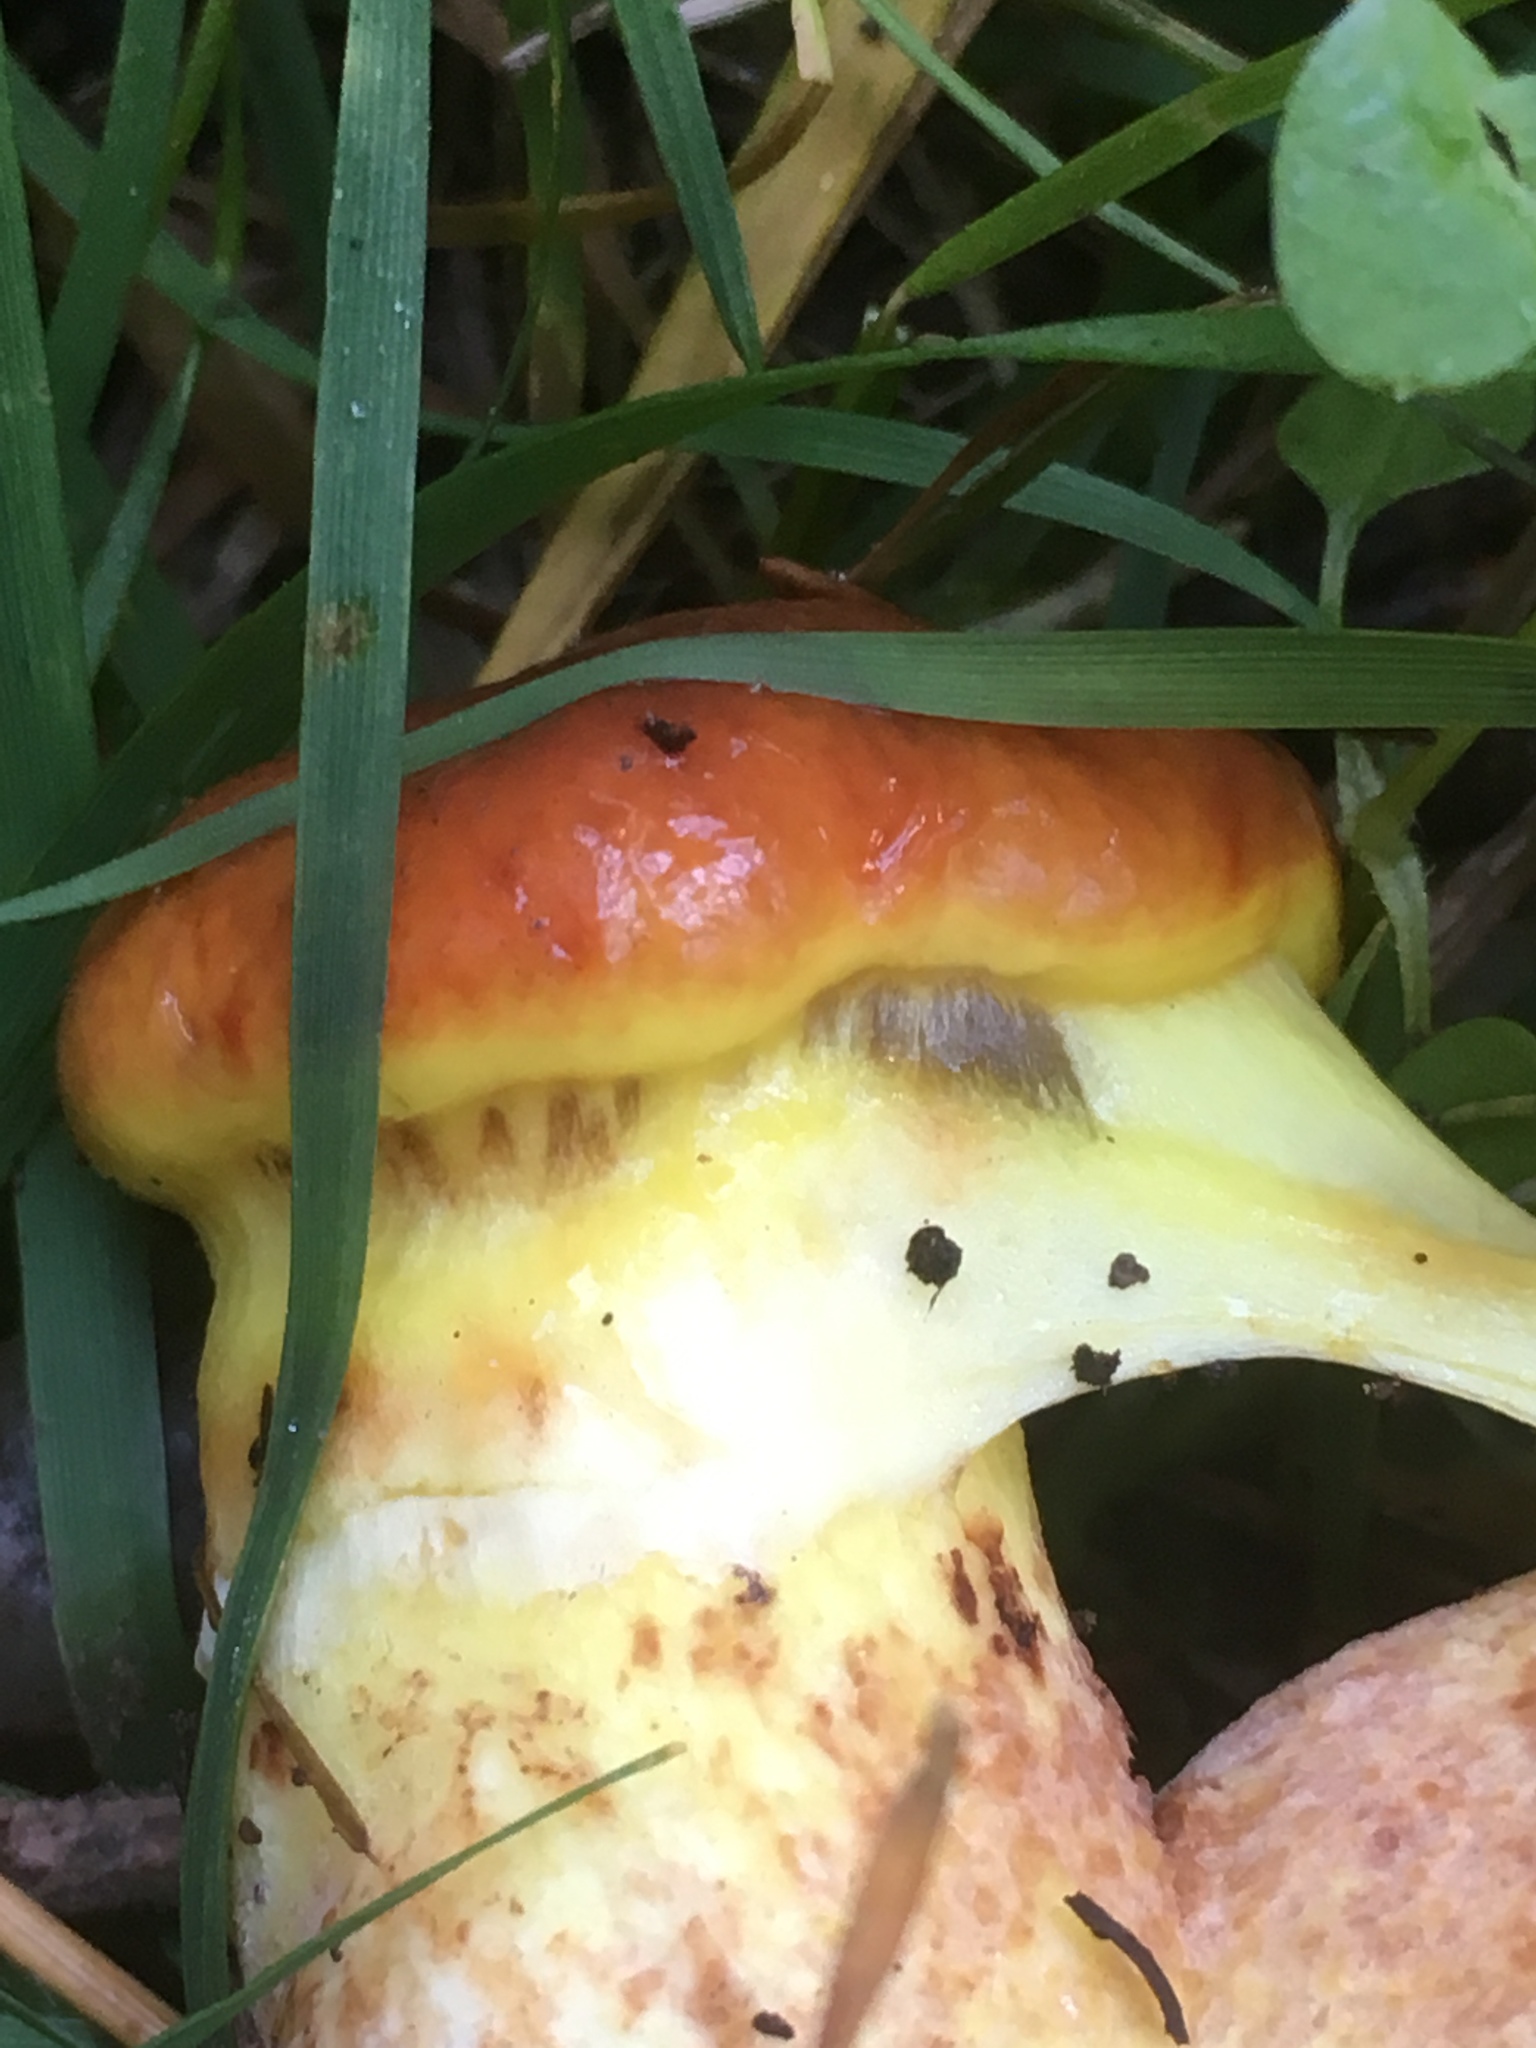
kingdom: Fungi
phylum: Basidiomycota
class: Agaricomycetes
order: Boletales
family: Suillaceae
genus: Suillus
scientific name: Suillus grevillei
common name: Larch bolete
